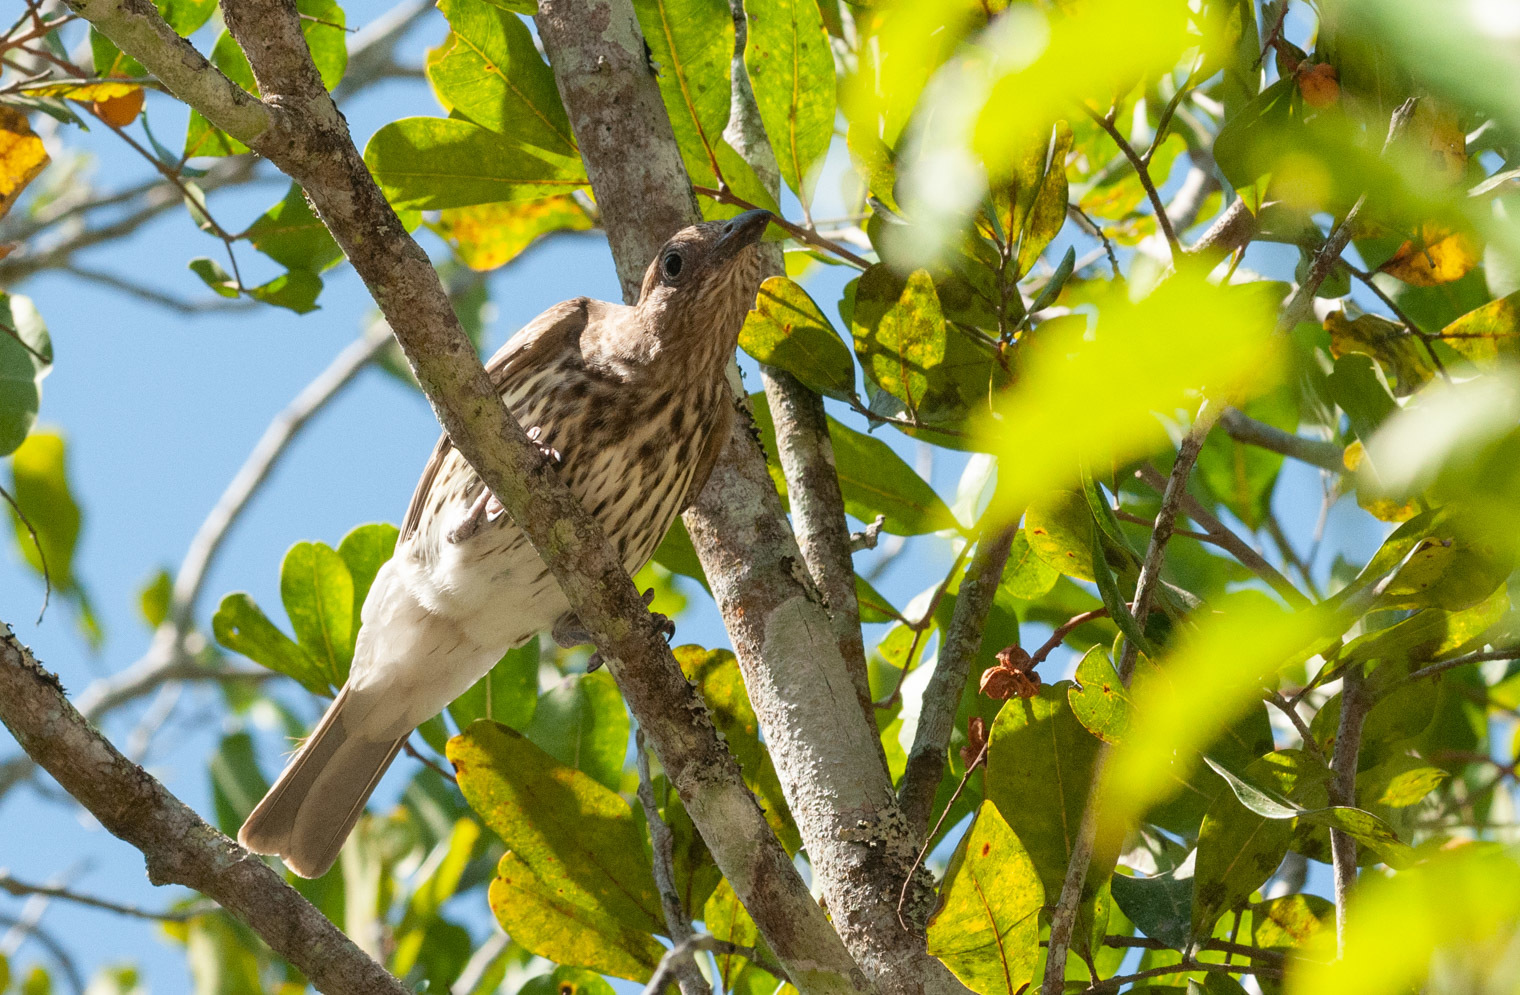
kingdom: Animalia
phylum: Chordata
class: Aves
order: Passeriformes
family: Oriolidae
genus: Sphecotheres
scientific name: Sphecotheres vieilloti
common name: Australasian figbird
